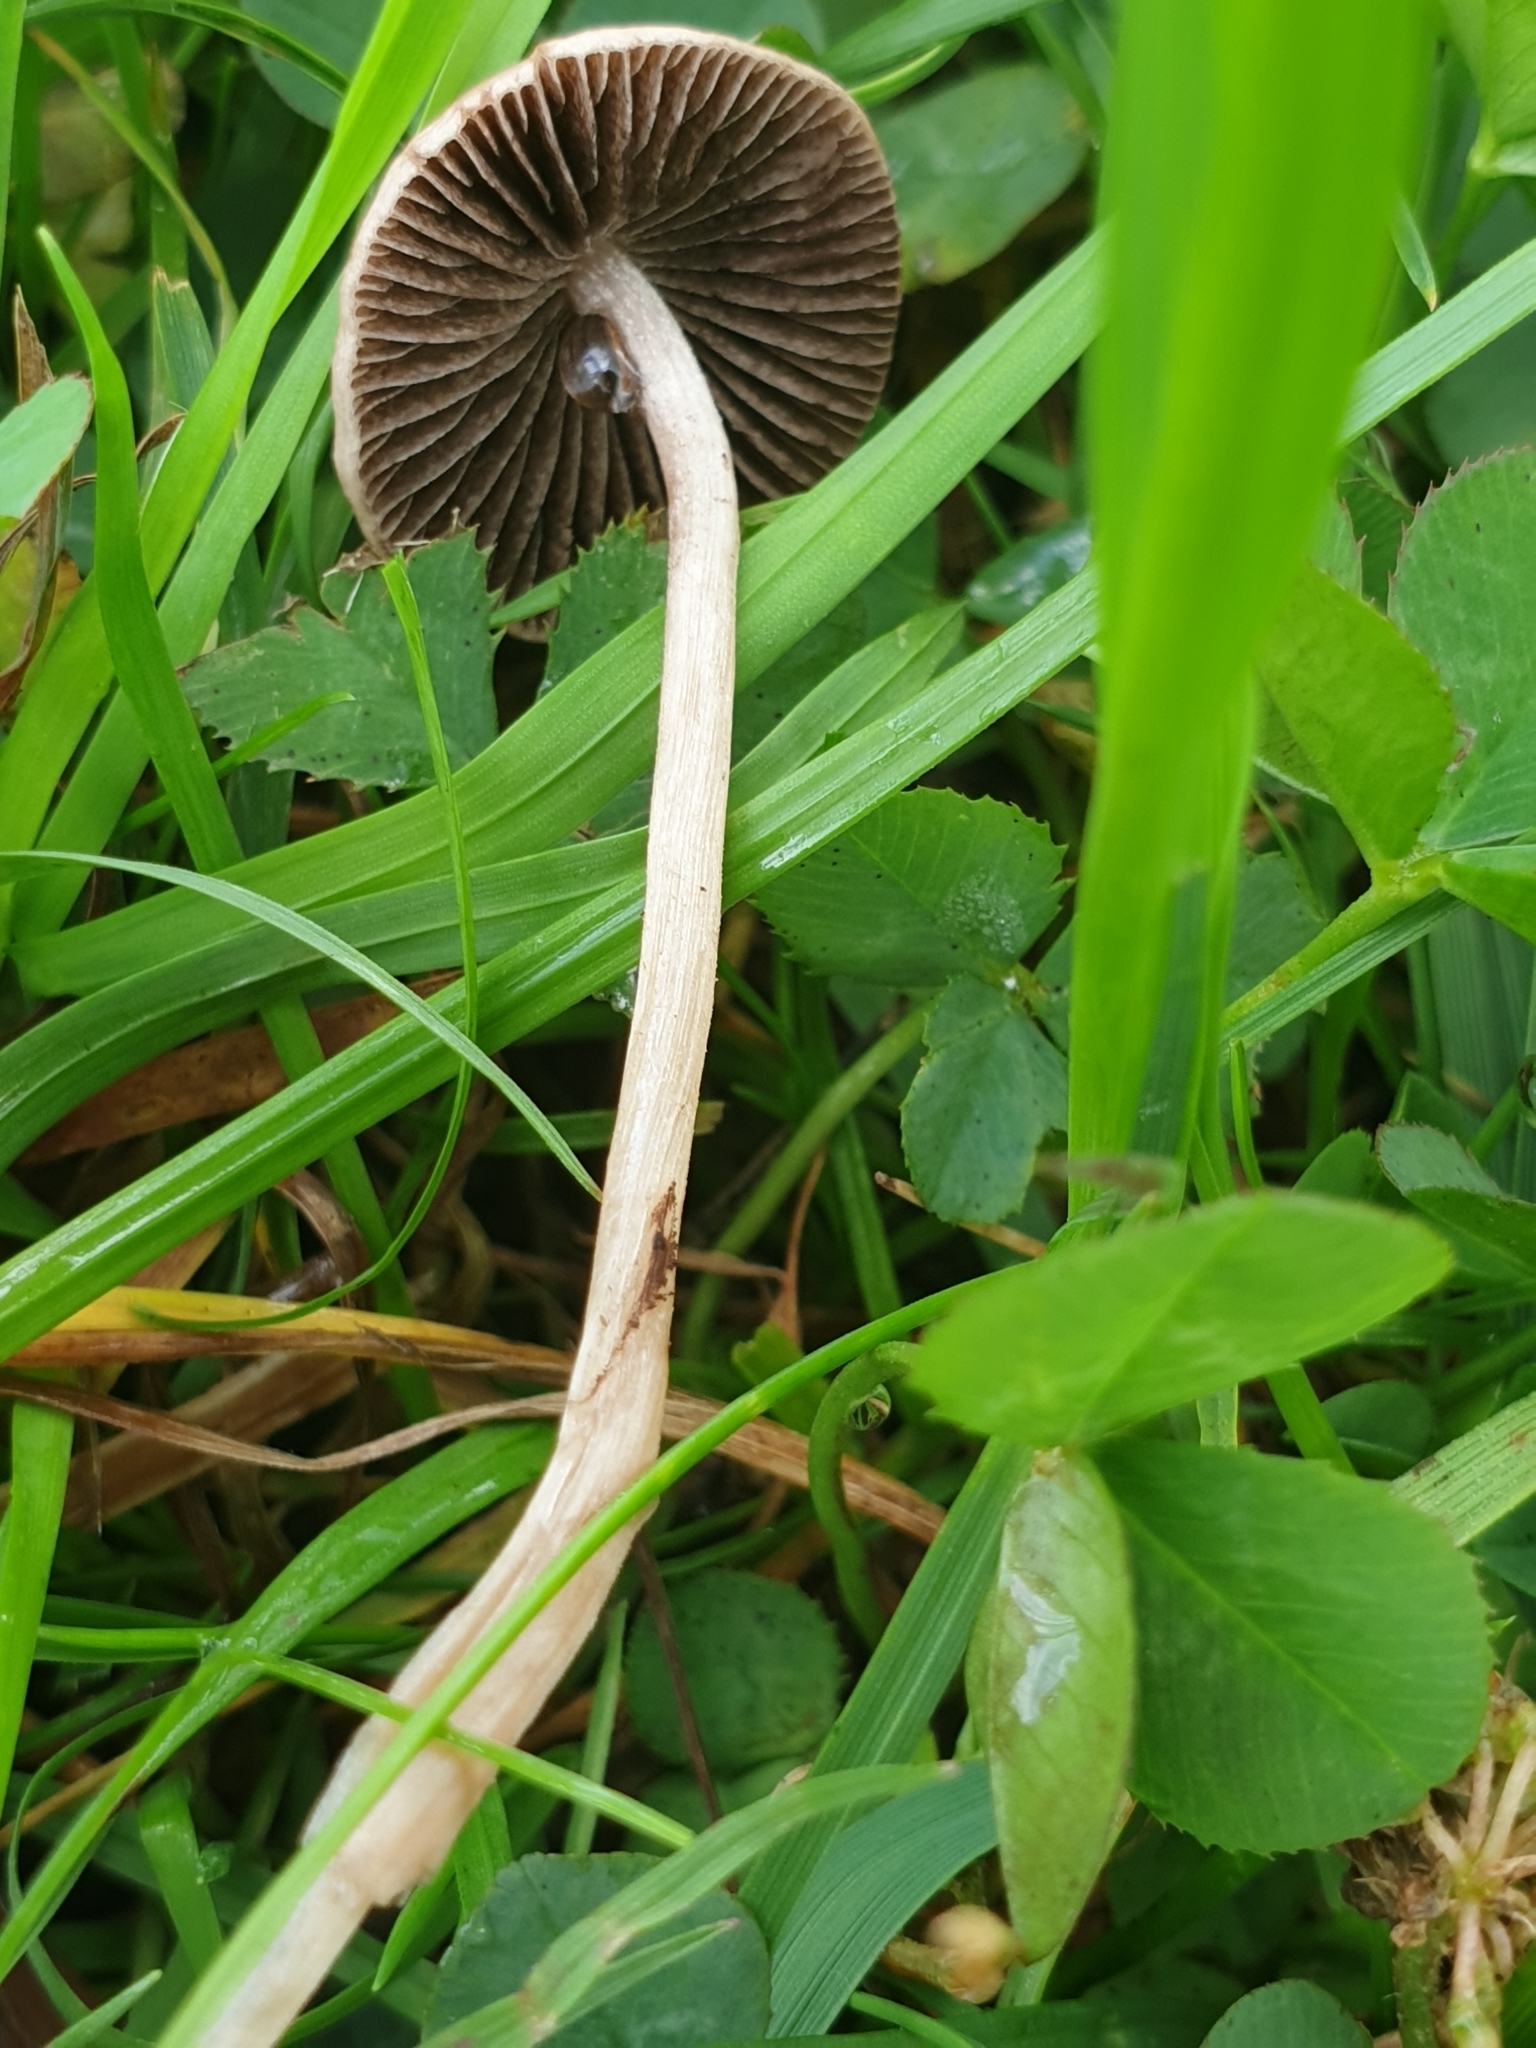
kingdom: Fungi
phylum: Basidiomycota
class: Agaricomycetes
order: Agaricales
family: Bolbitiaceae
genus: Panaeolina
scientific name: Panaeolina foenisecii
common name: Brown hay cap
